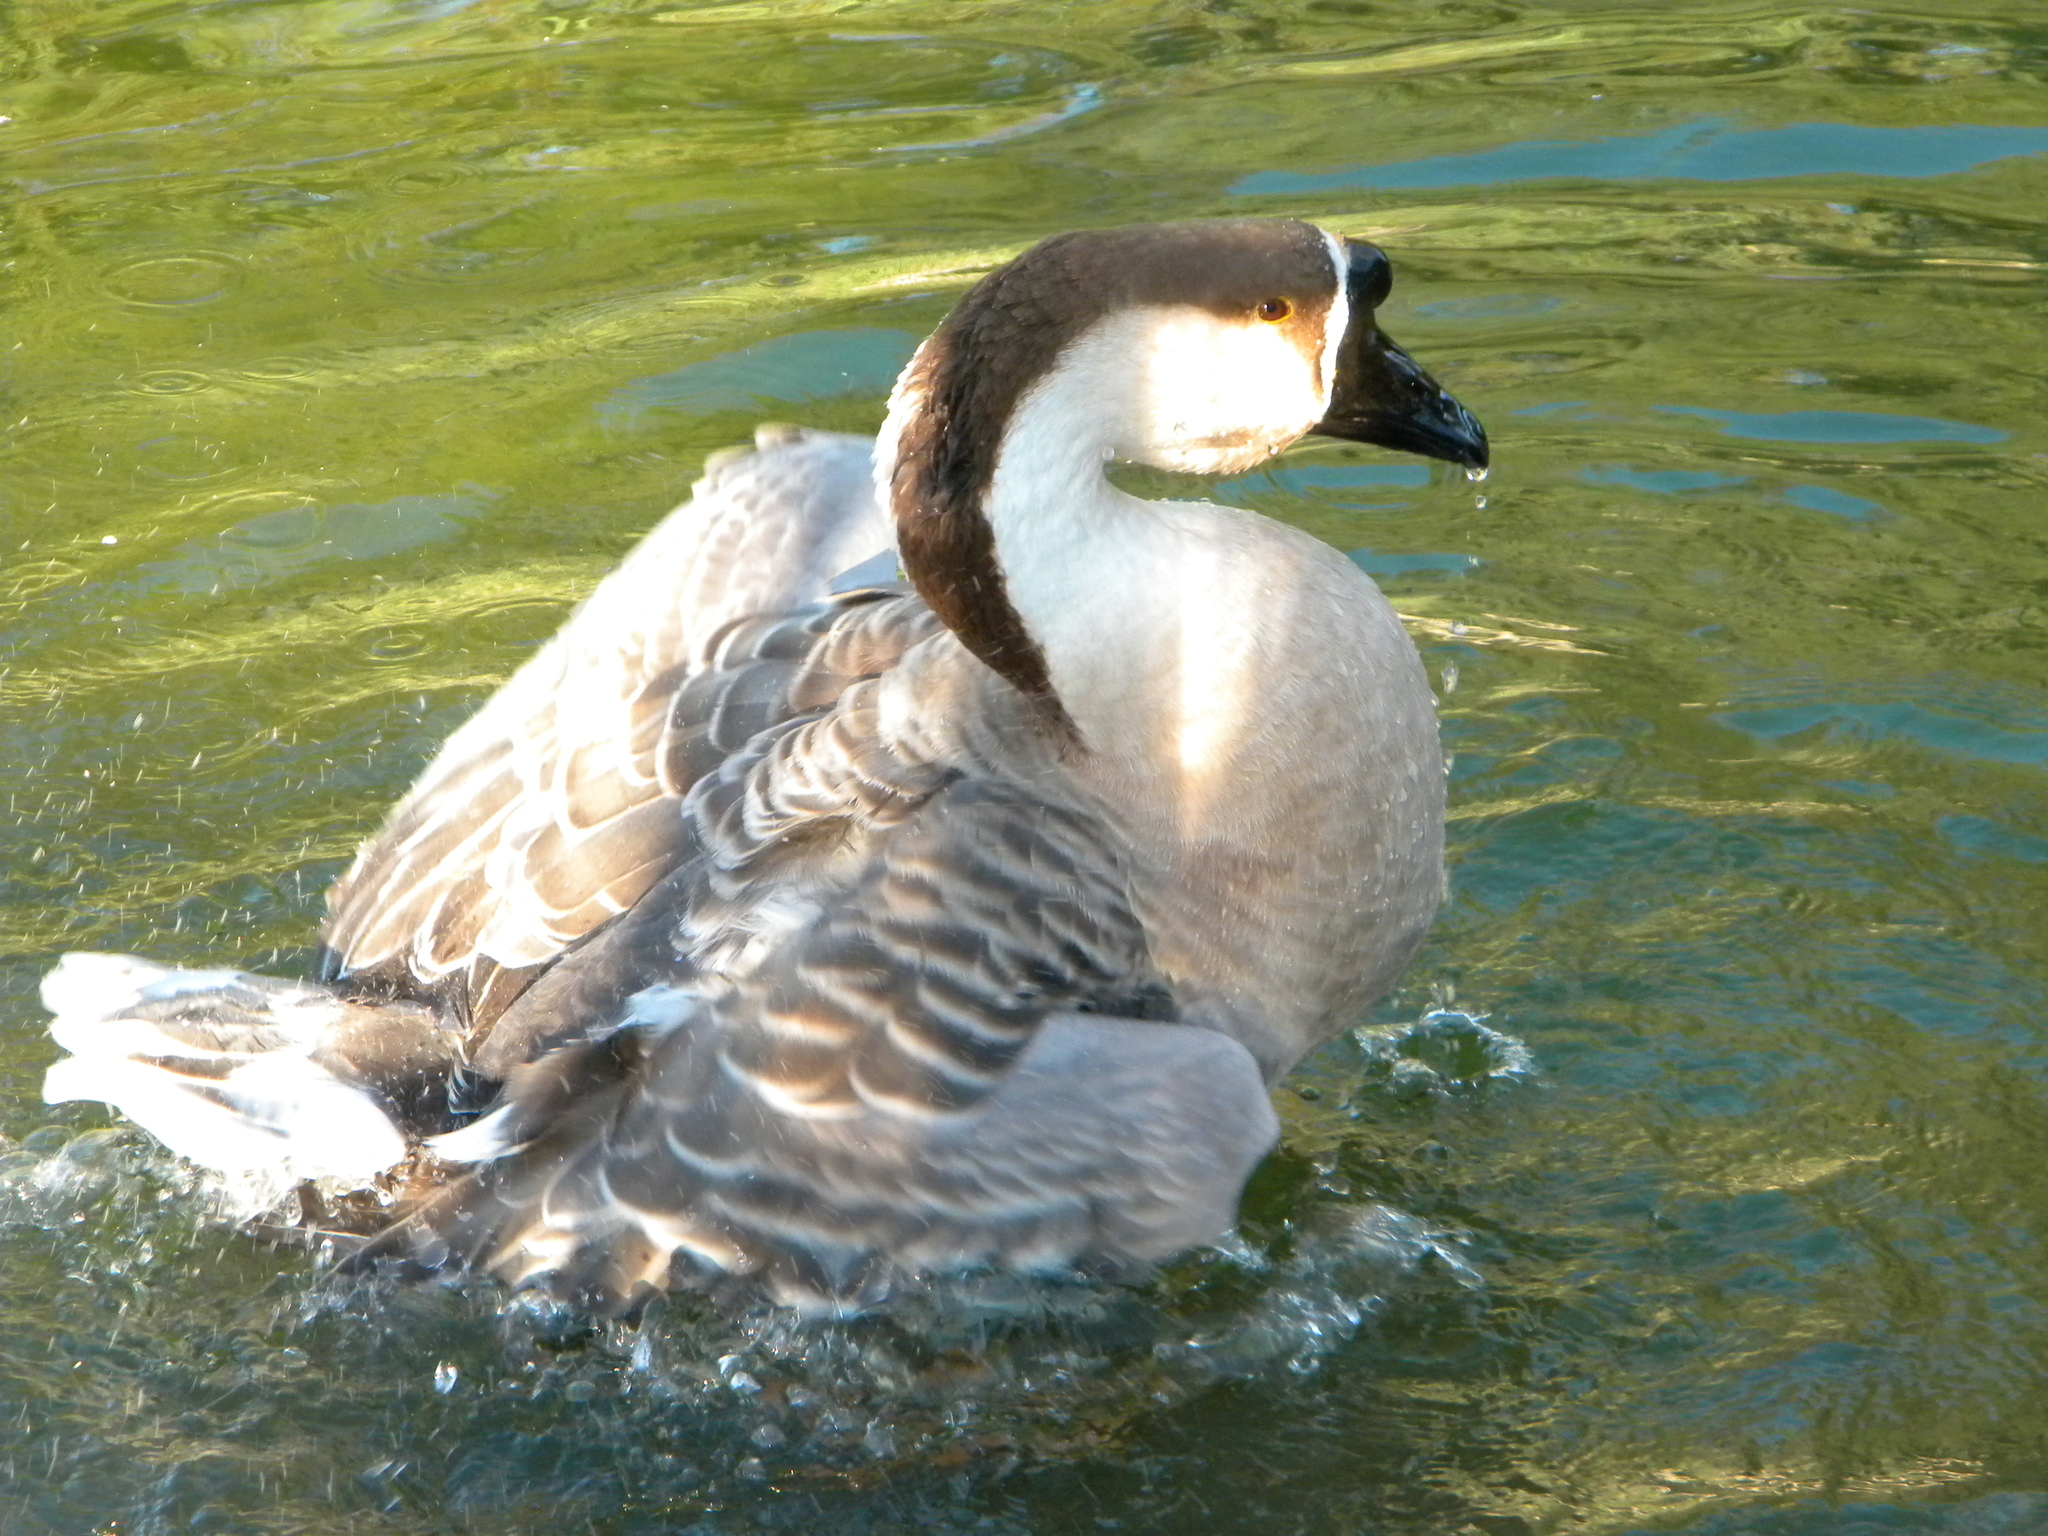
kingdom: Animalia
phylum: Chordata
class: Aves
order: Anseriformes
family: Anatidae
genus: Anser
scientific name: Anser cygnoides
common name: Swan goose
